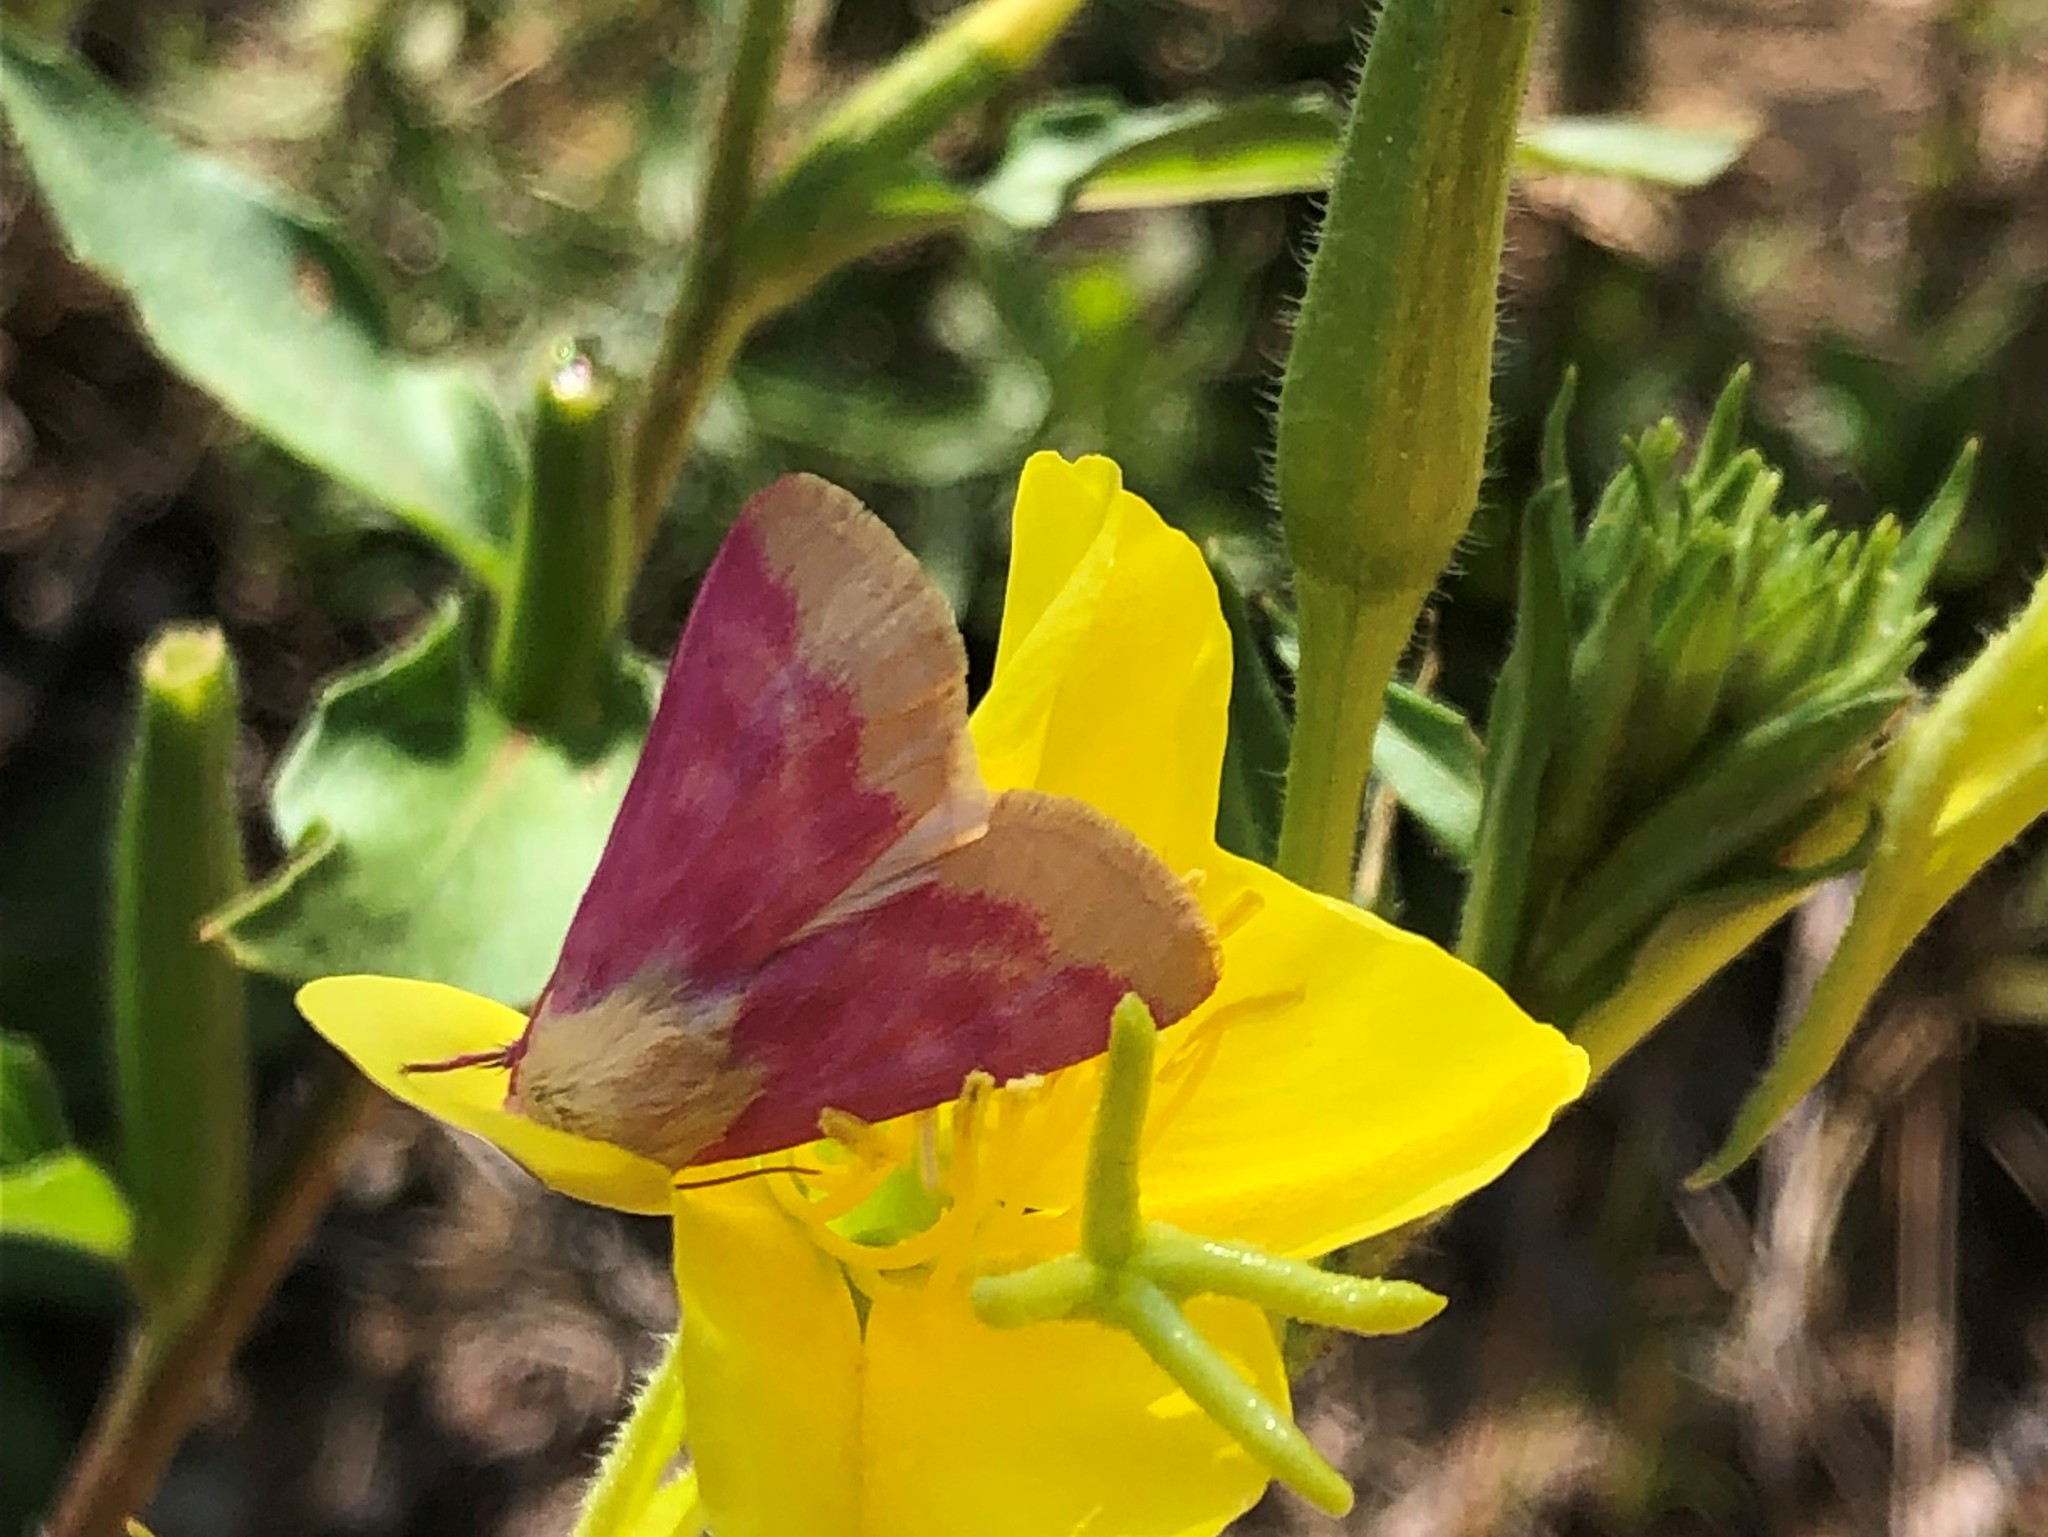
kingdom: Animalia
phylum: Arthropoda
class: Insecta
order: Lepidoptera
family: Noctuidae
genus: Schinia
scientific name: Schinia florida
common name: Primrose moth
